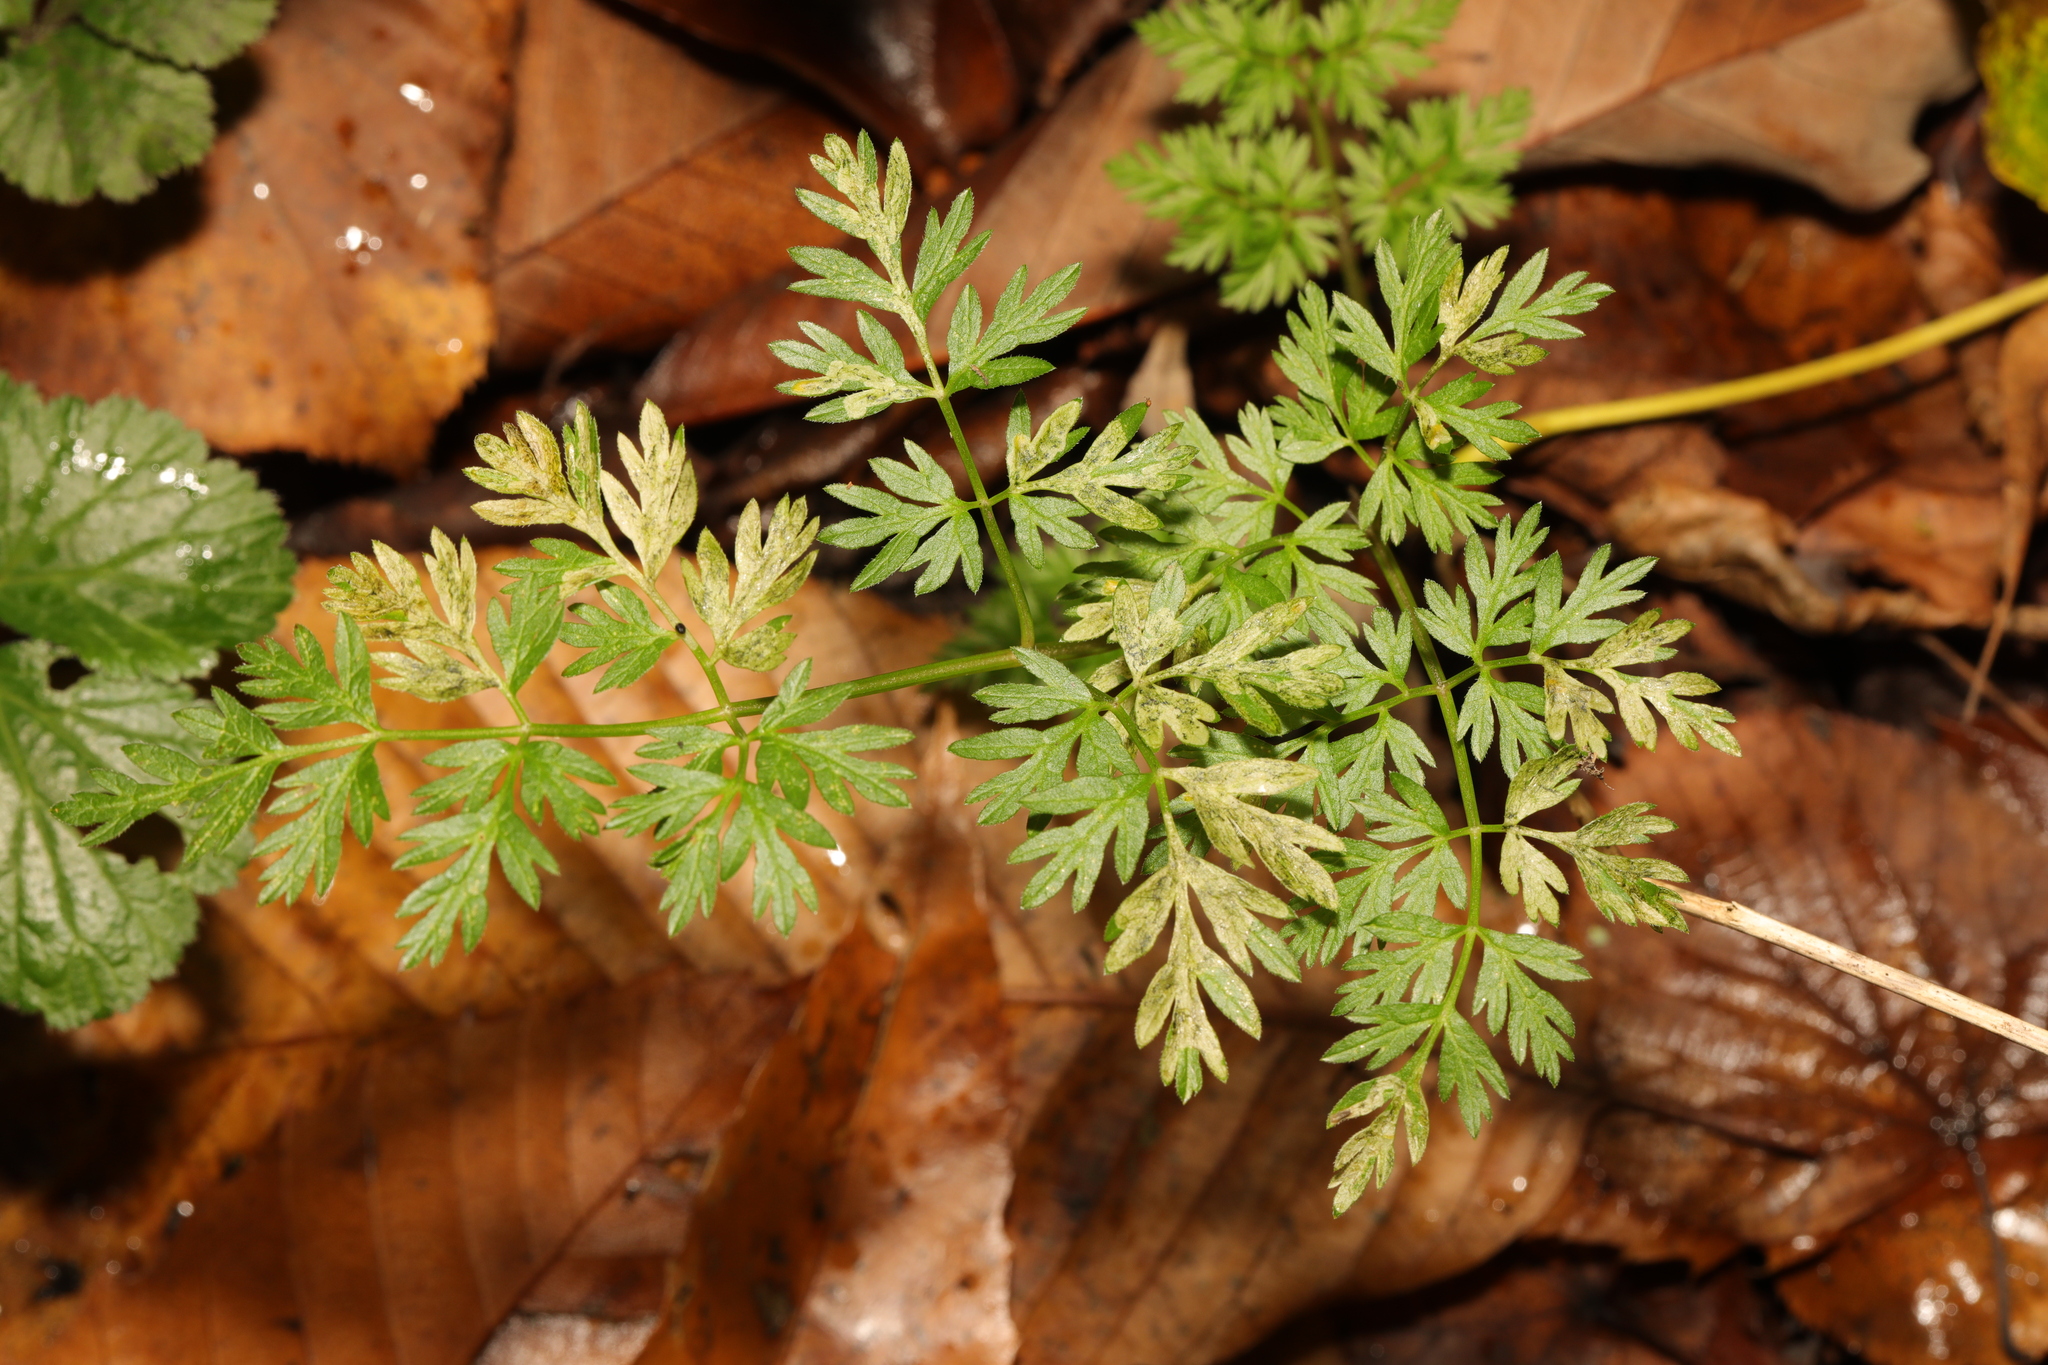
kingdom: Plantae
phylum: Tracheophyta
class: Magnoliopsida
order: Apiales
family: Apiaceae
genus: Anthriscus
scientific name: Anthriscus sylvestris
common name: Cow parsley
